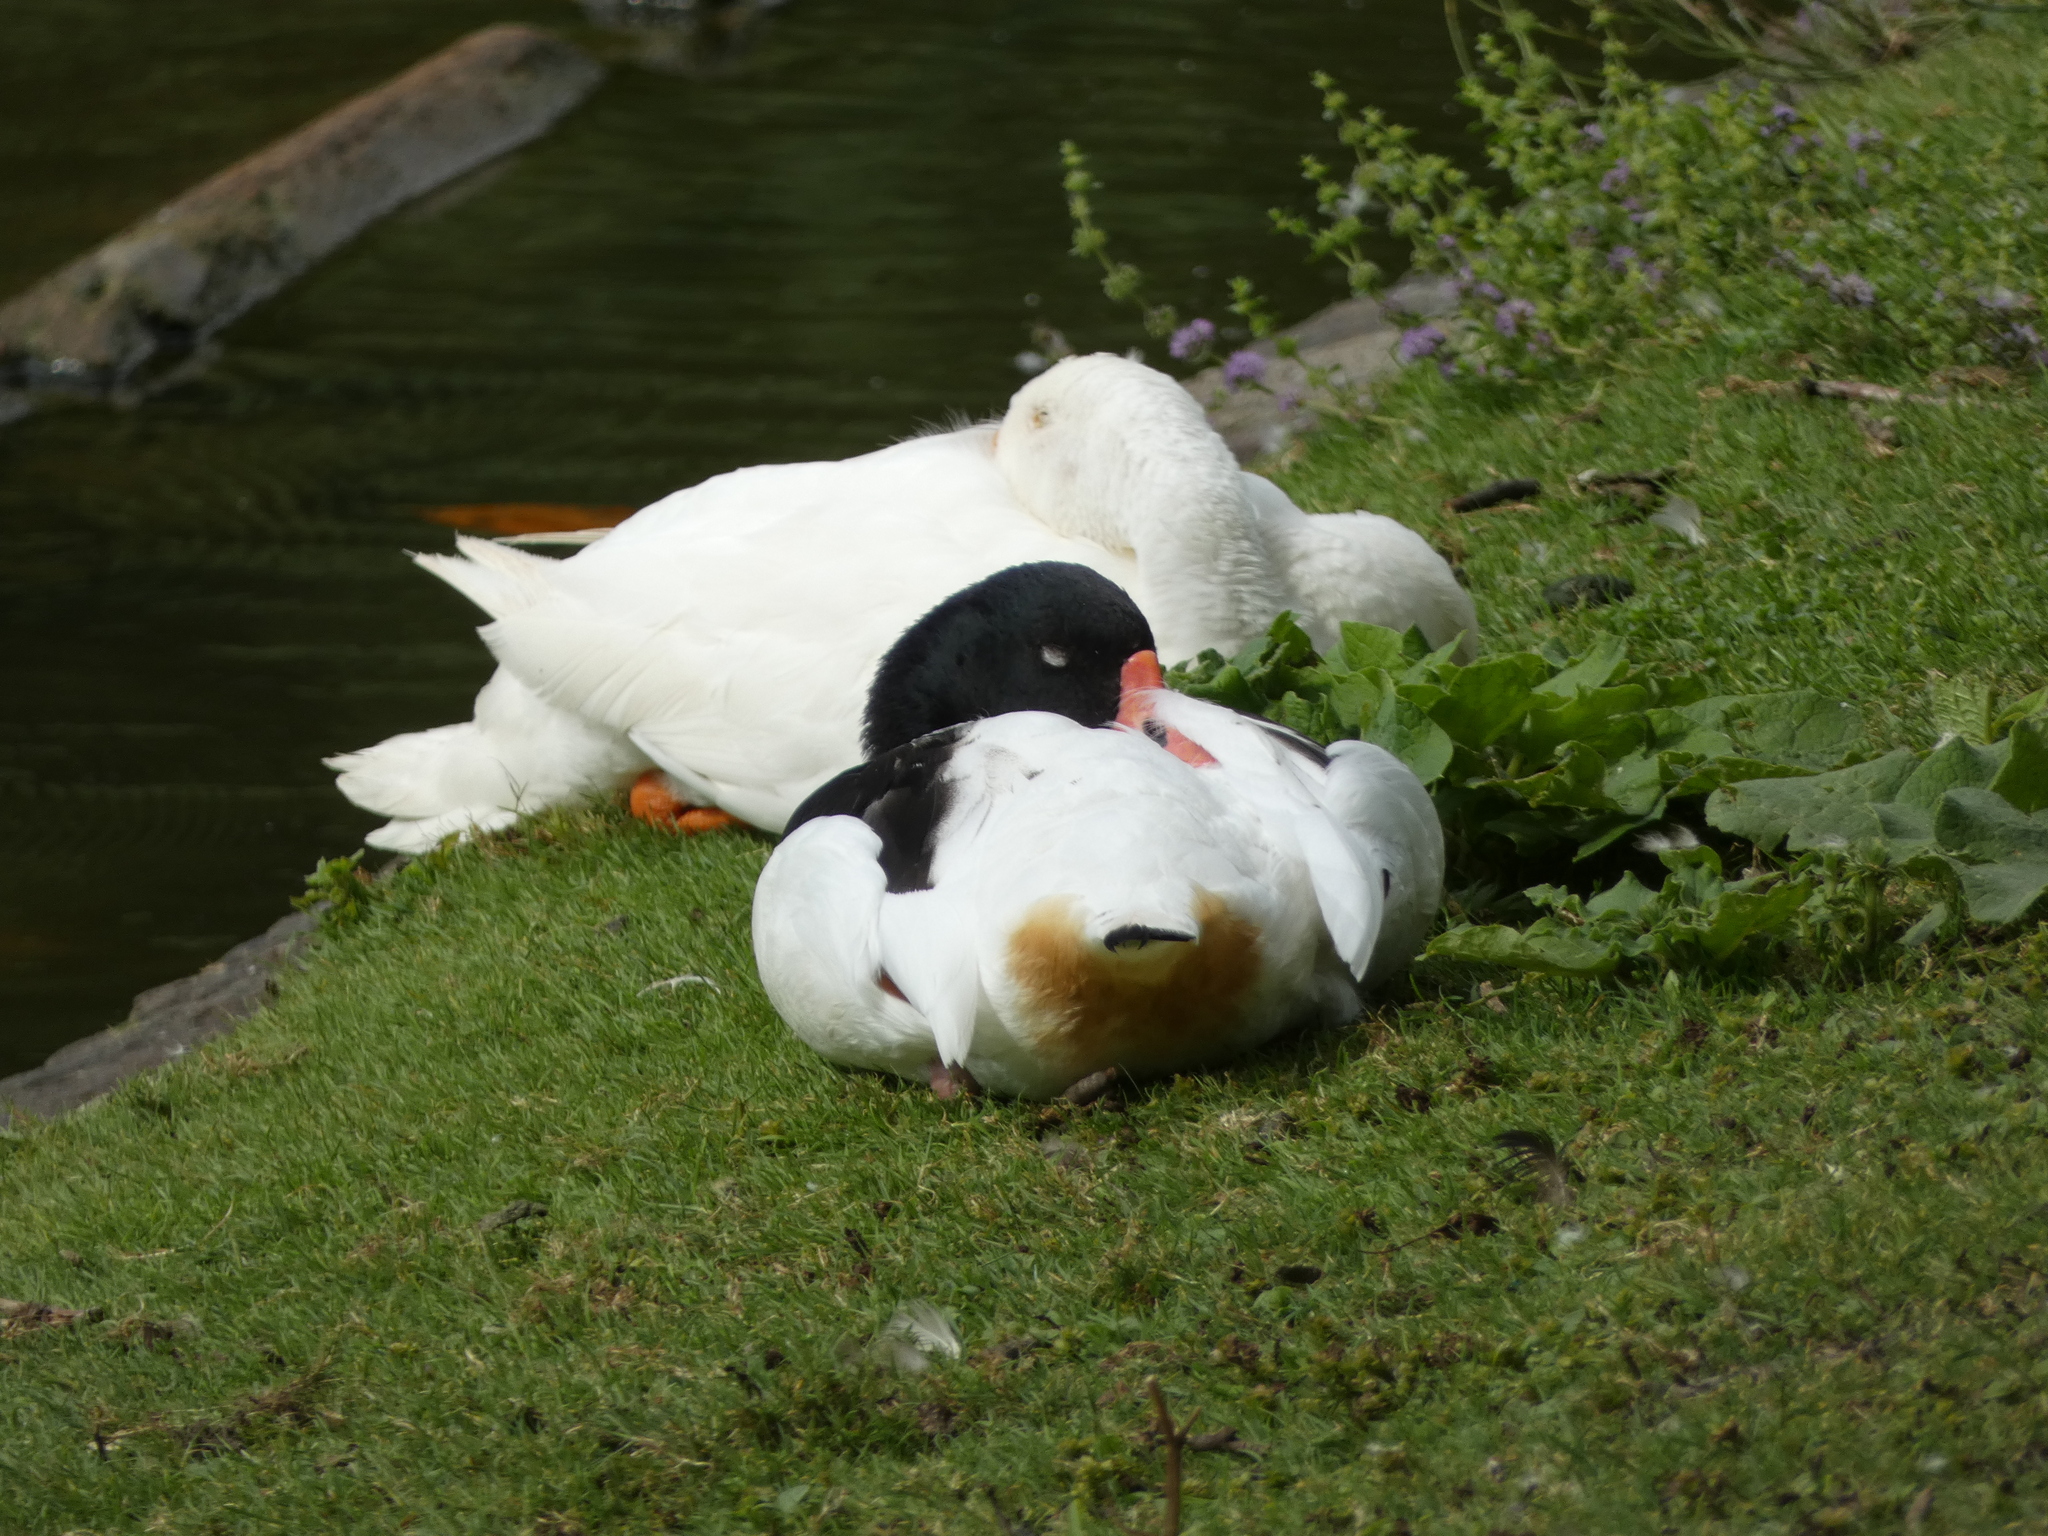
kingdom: Animalia
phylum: Chordata
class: Aves
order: Anseriformes
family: Anatidae
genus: Tadorna
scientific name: Tadorna tadorna
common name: Common shelduck
